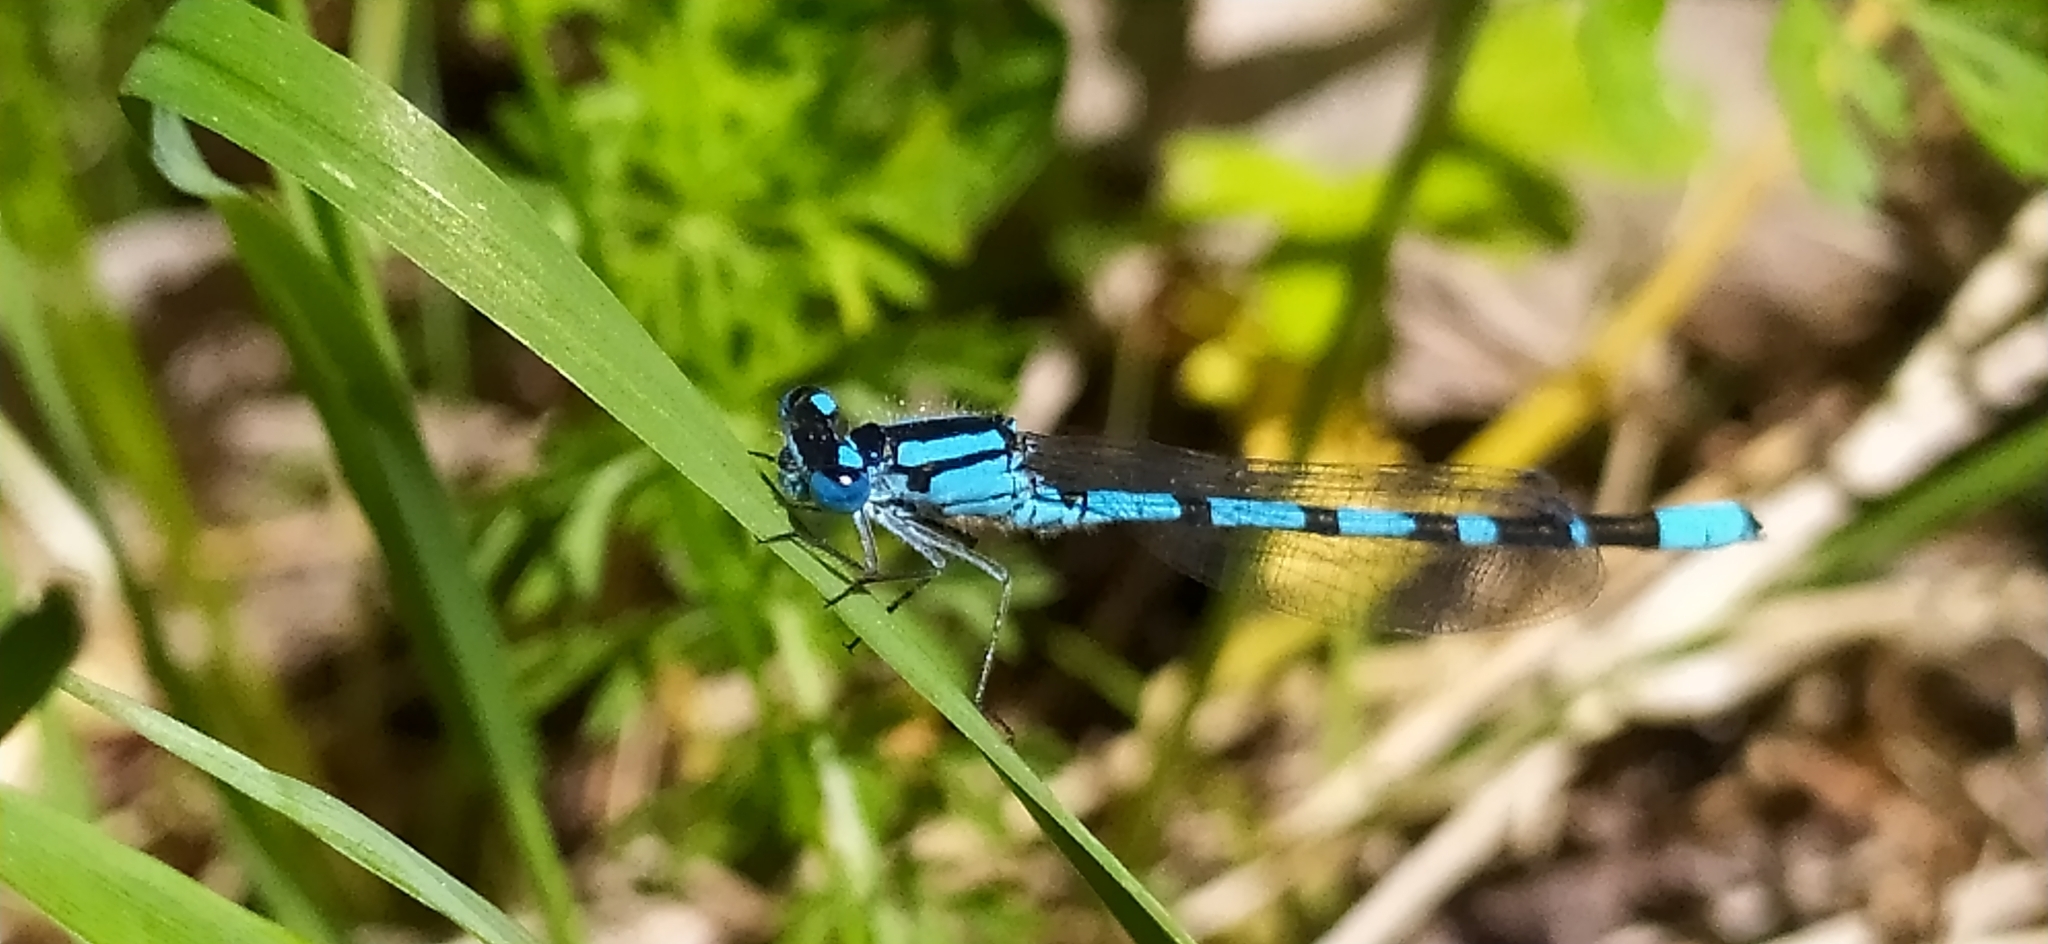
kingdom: Animalia
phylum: Arthropoda
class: Insecta
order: Odonata
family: Coenagrionidae
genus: Enallagma
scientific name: Enallagma cyathigerum
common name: Common blue damselfly
